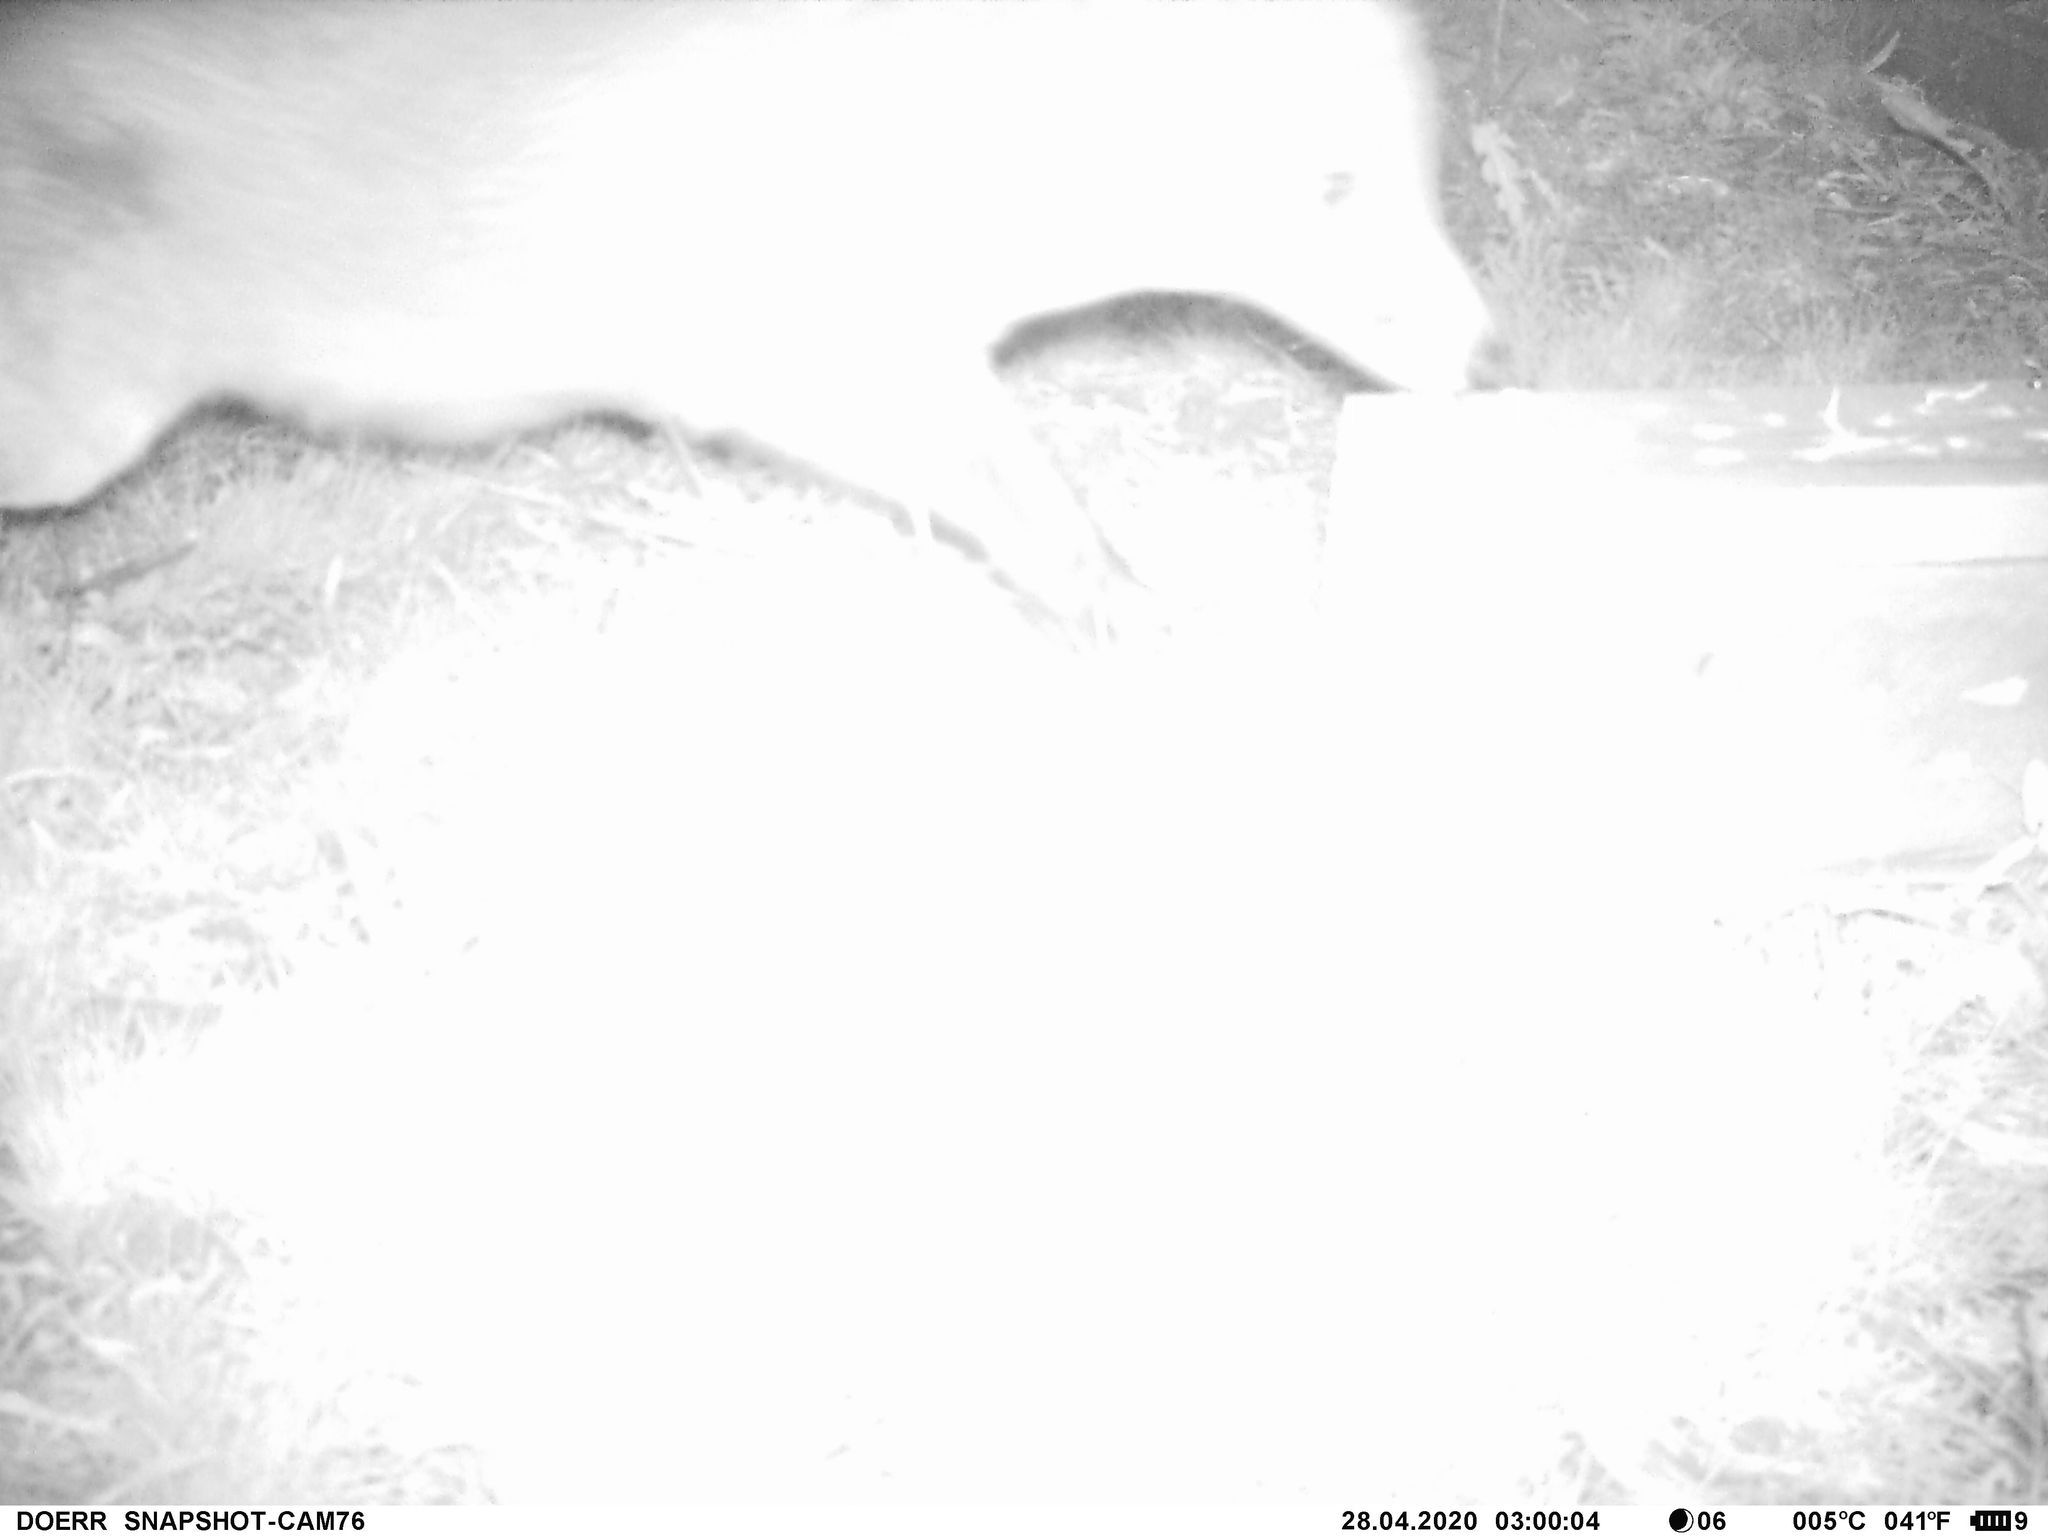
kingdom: Animalia
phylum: Chordata
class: Mammalia
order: Carnivora
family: Canidae
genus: Vulpes
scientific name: Vulpes vulpes
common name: Red fox
